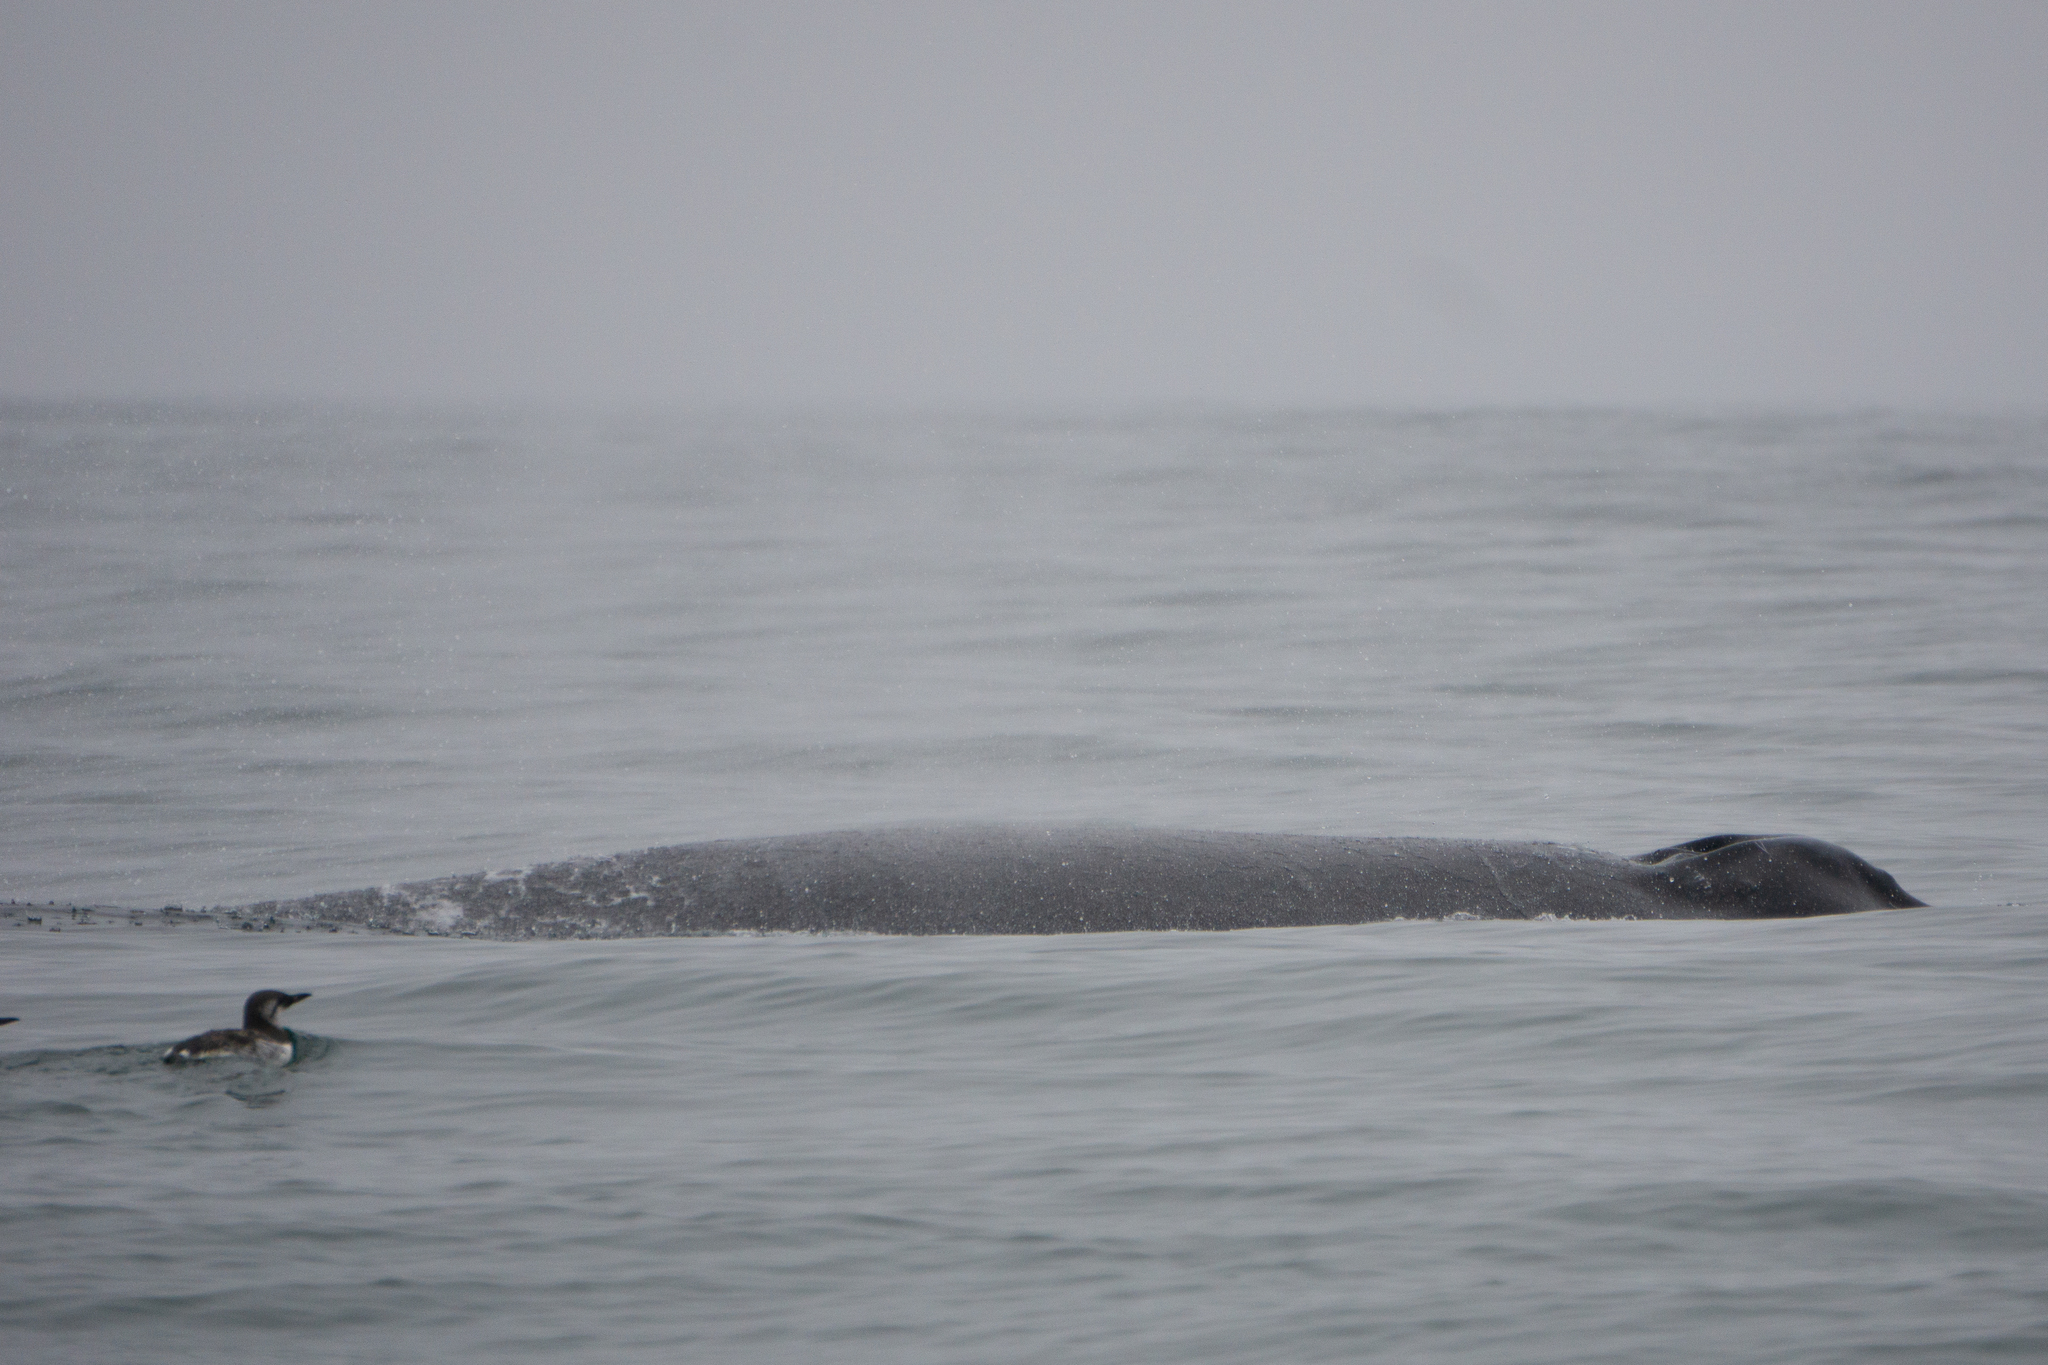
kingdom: Animalia
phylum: Chordata
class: Aves
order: Charadriiformes
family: Alcidae
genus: Uria
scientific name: Uria aalge
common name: Common murre
